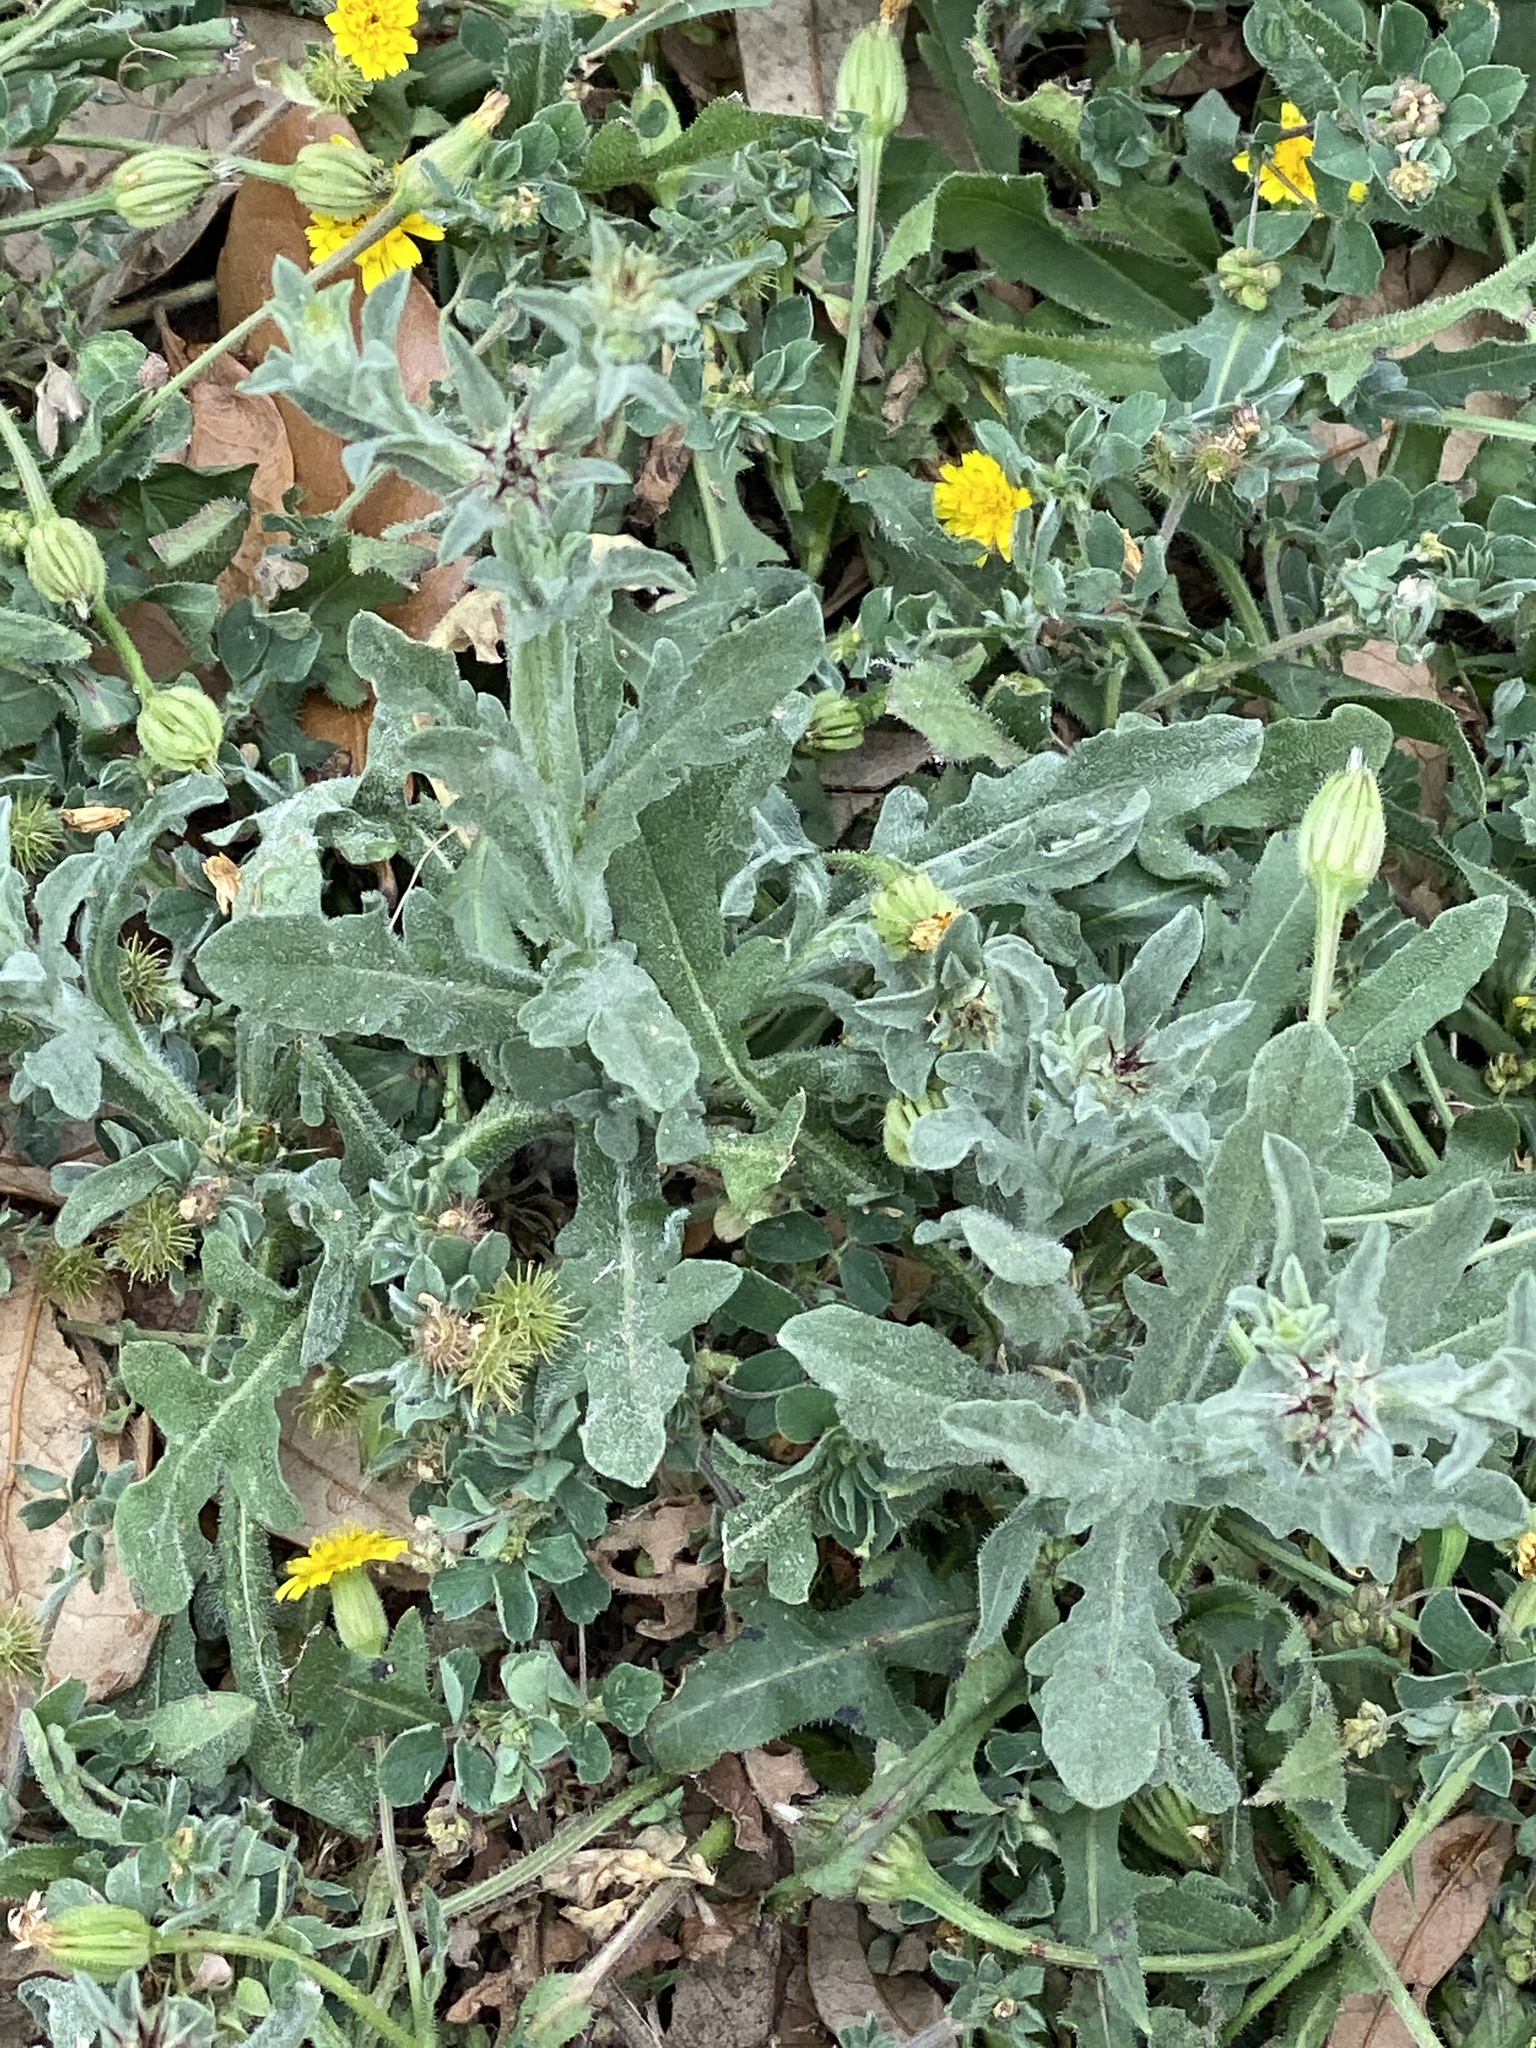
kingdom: Plantae
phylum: Tracheophyta
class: Magnoliopsida
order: Asterales
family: Asteraceae
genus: Centaurea
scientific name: Centaurea melitensis
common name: Maltese star-thistle
